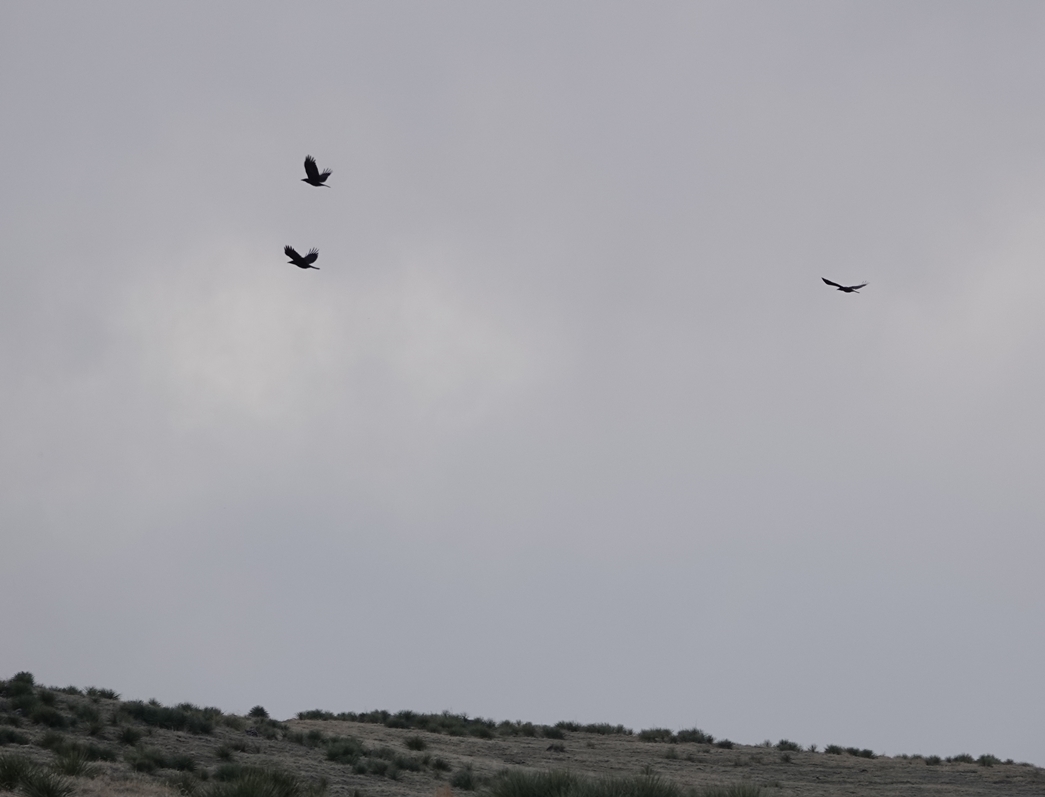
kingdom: Animalia
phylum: Chordata
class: Aves
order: Passeriformes
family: Corvidae
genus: Corvus
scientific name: Corvus brachyrhynchos
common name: American crow
